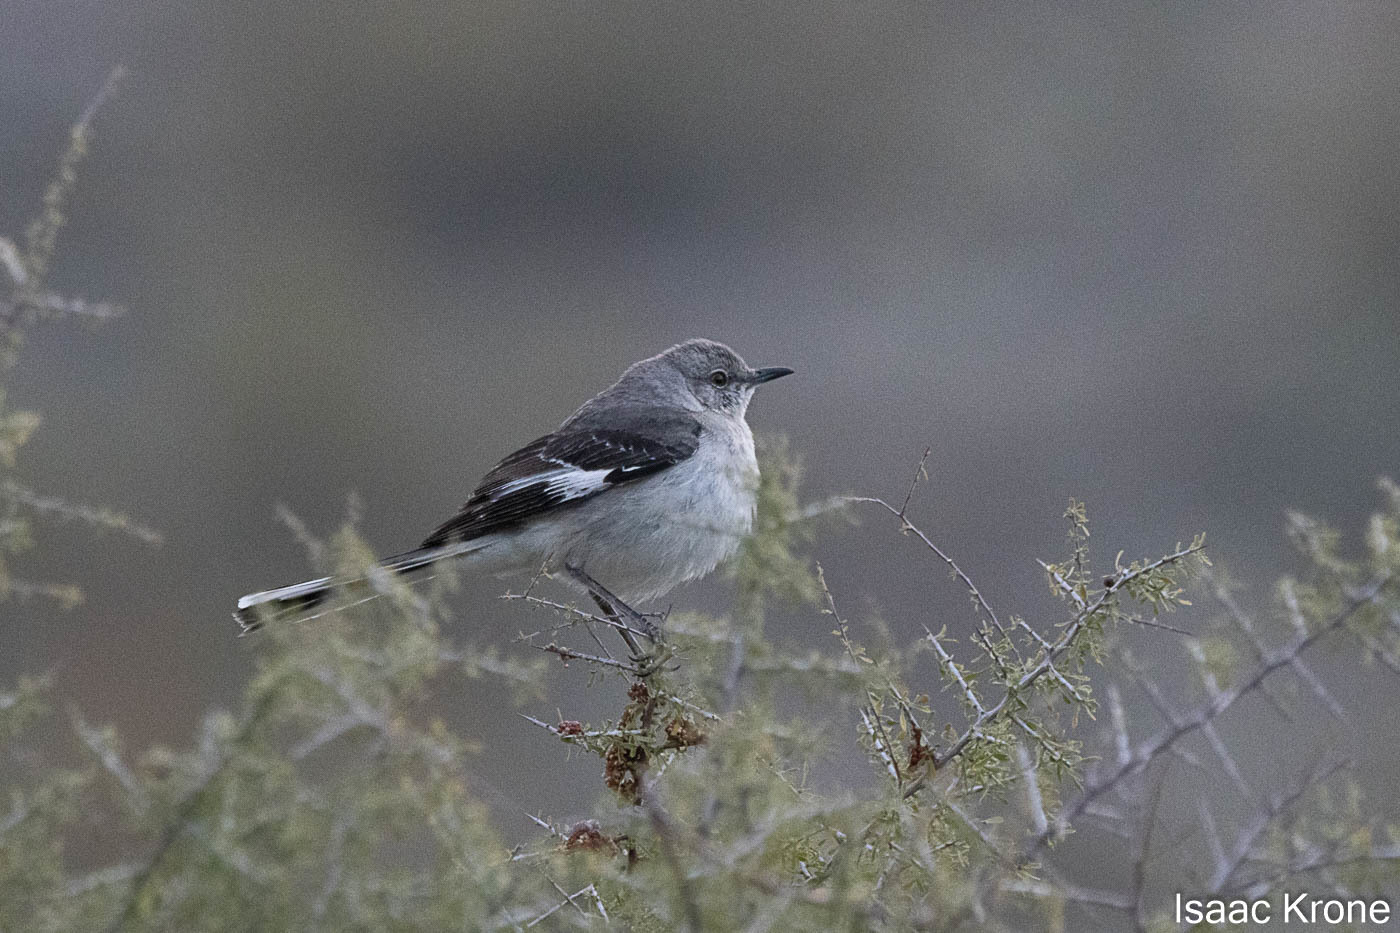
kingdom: Animalia
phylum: Chordata
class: Aves
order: Passeriformes
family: Mimidae
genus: Mimus
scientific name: Mimus polyglottos
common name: Northern mockingbird
